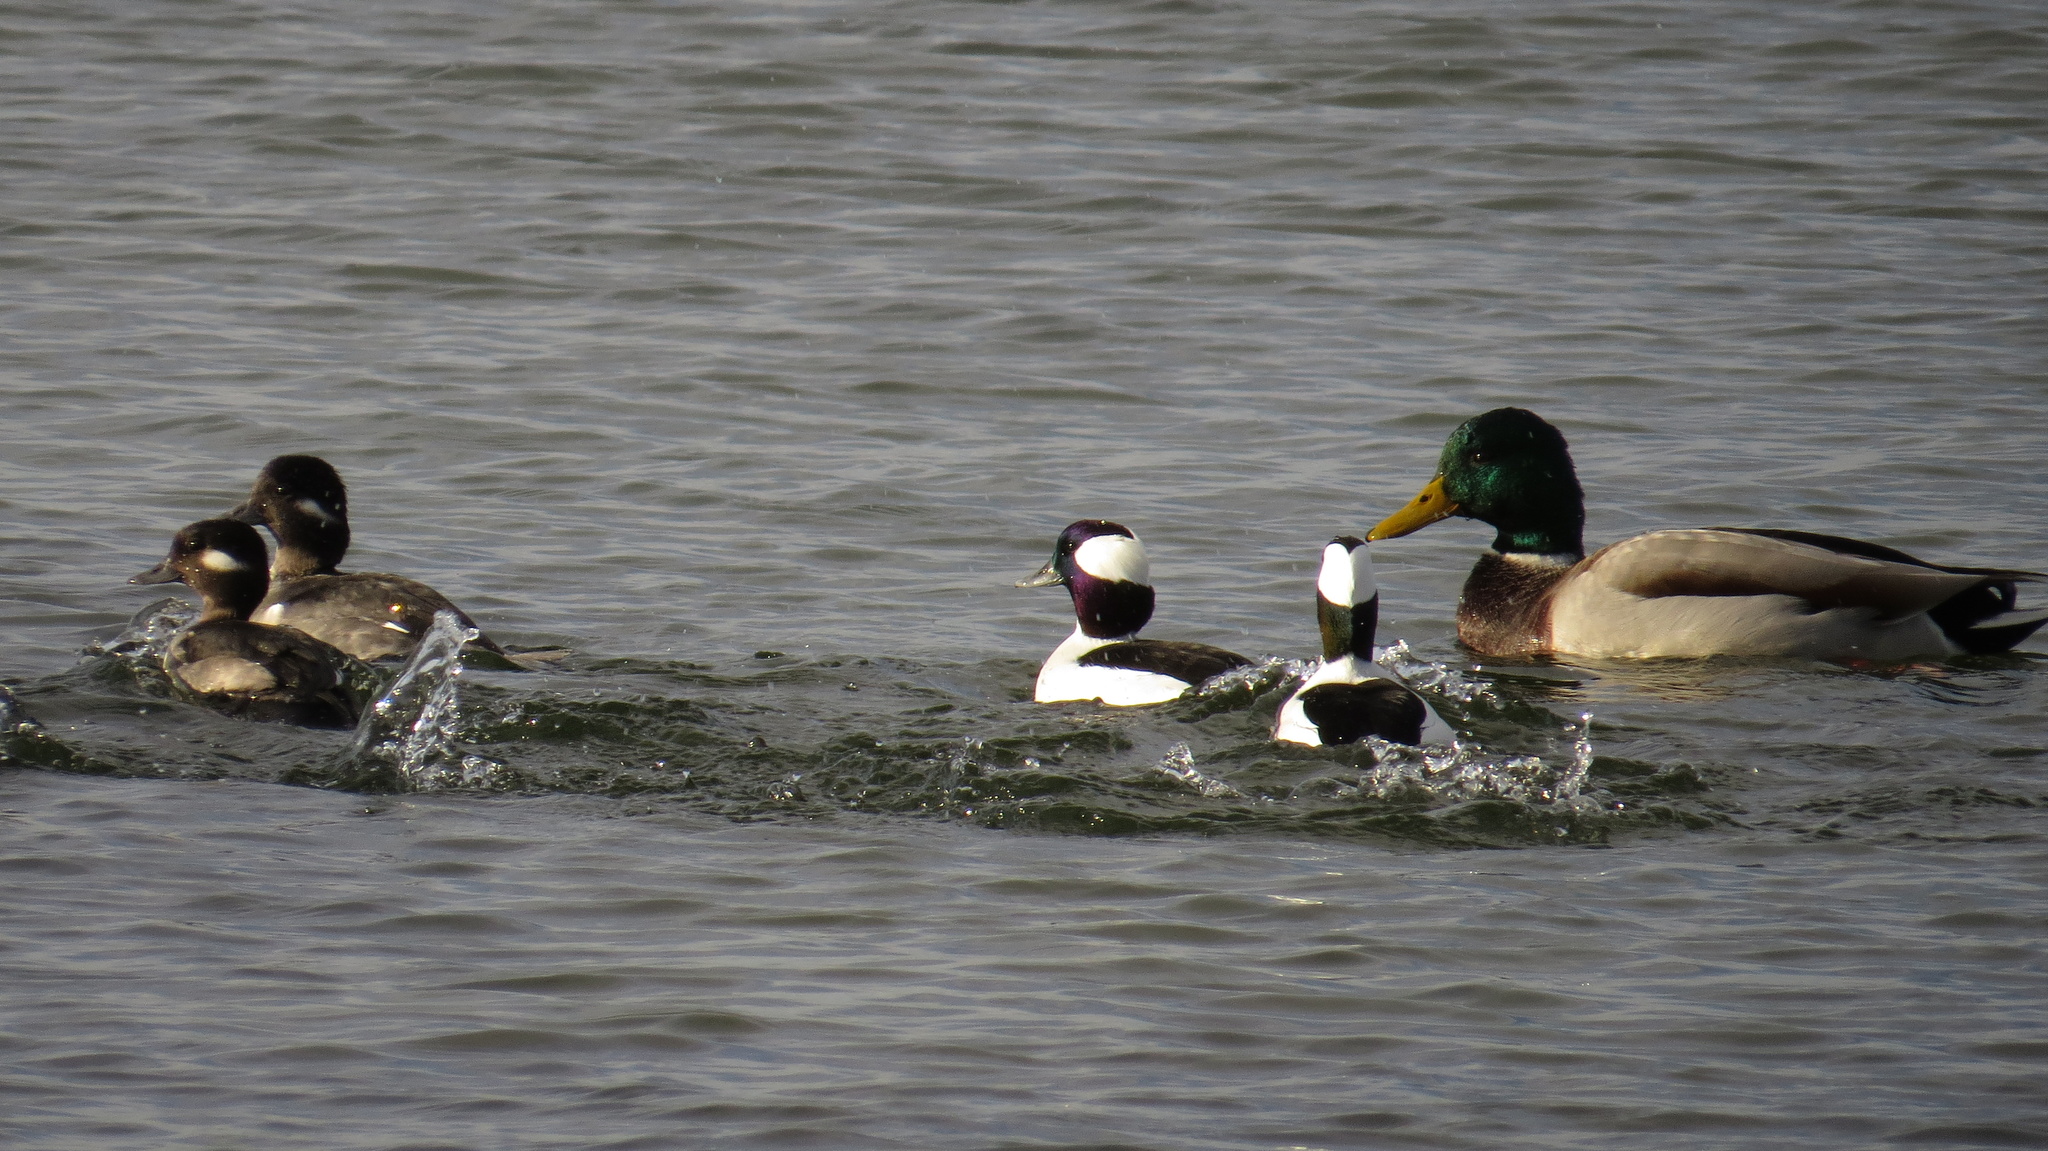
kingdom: Animalia
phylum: Chordata
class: Aves
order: Anseriformes
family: Anatidae
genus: Bucephala
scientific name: Bucephala albeola
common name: Bufflehead
